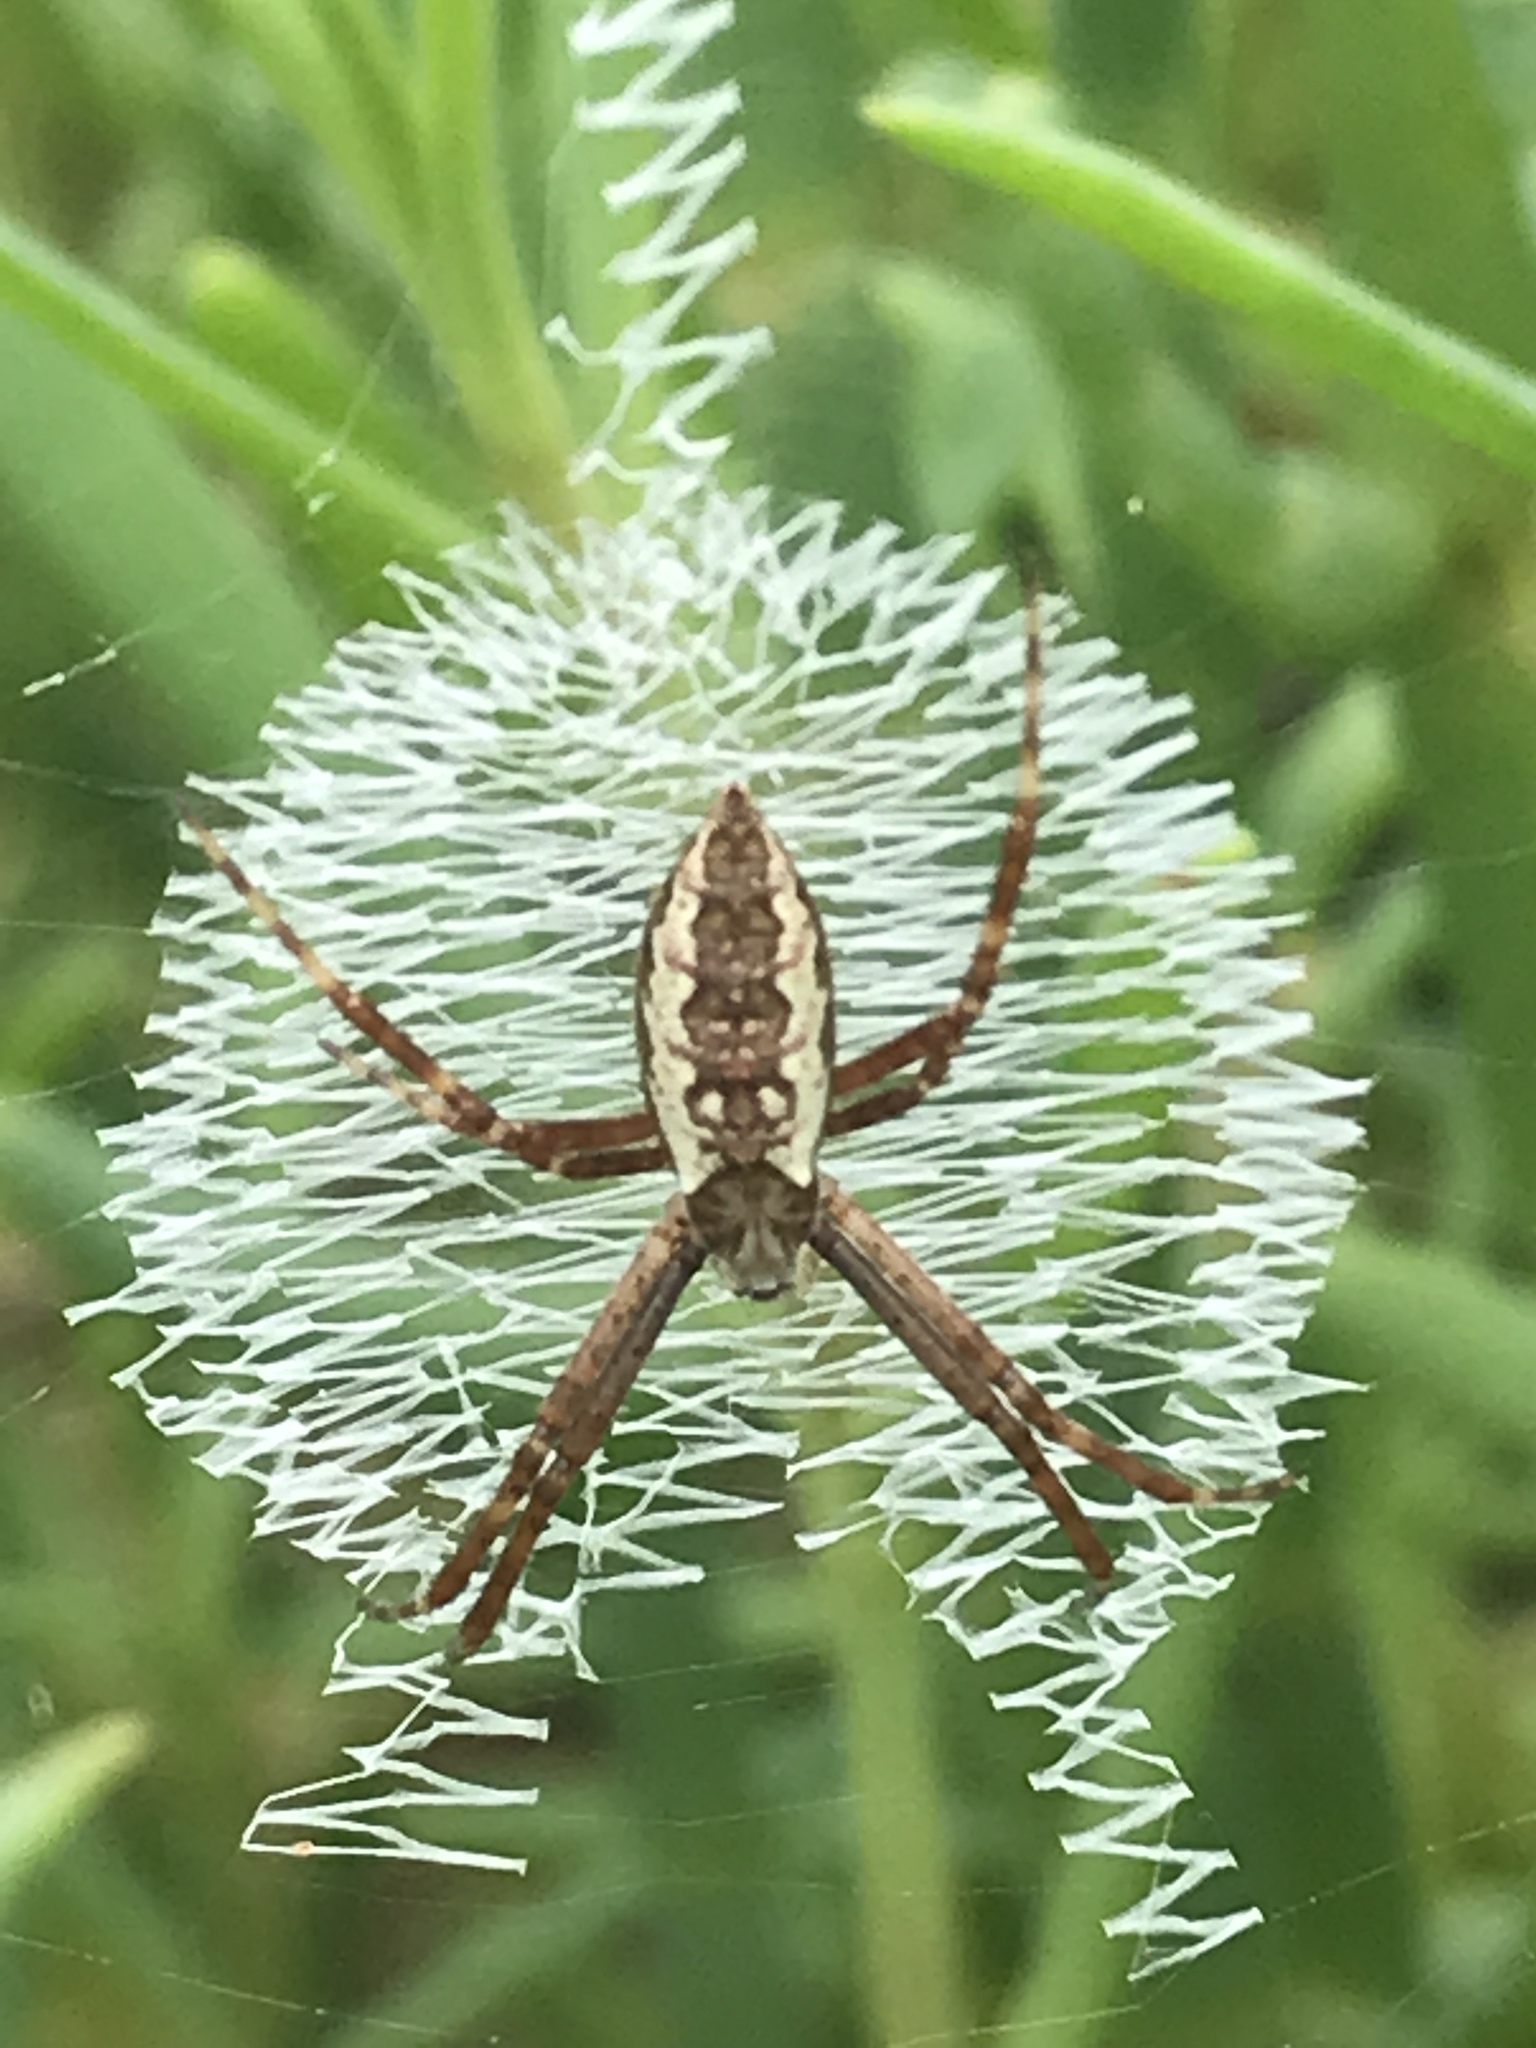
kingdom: Animalia
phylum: Arthropoda
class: Arachnida
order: Araneae
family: Araneidae
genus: Argiope
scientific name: Argiope aurantia
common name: Orb weavers
